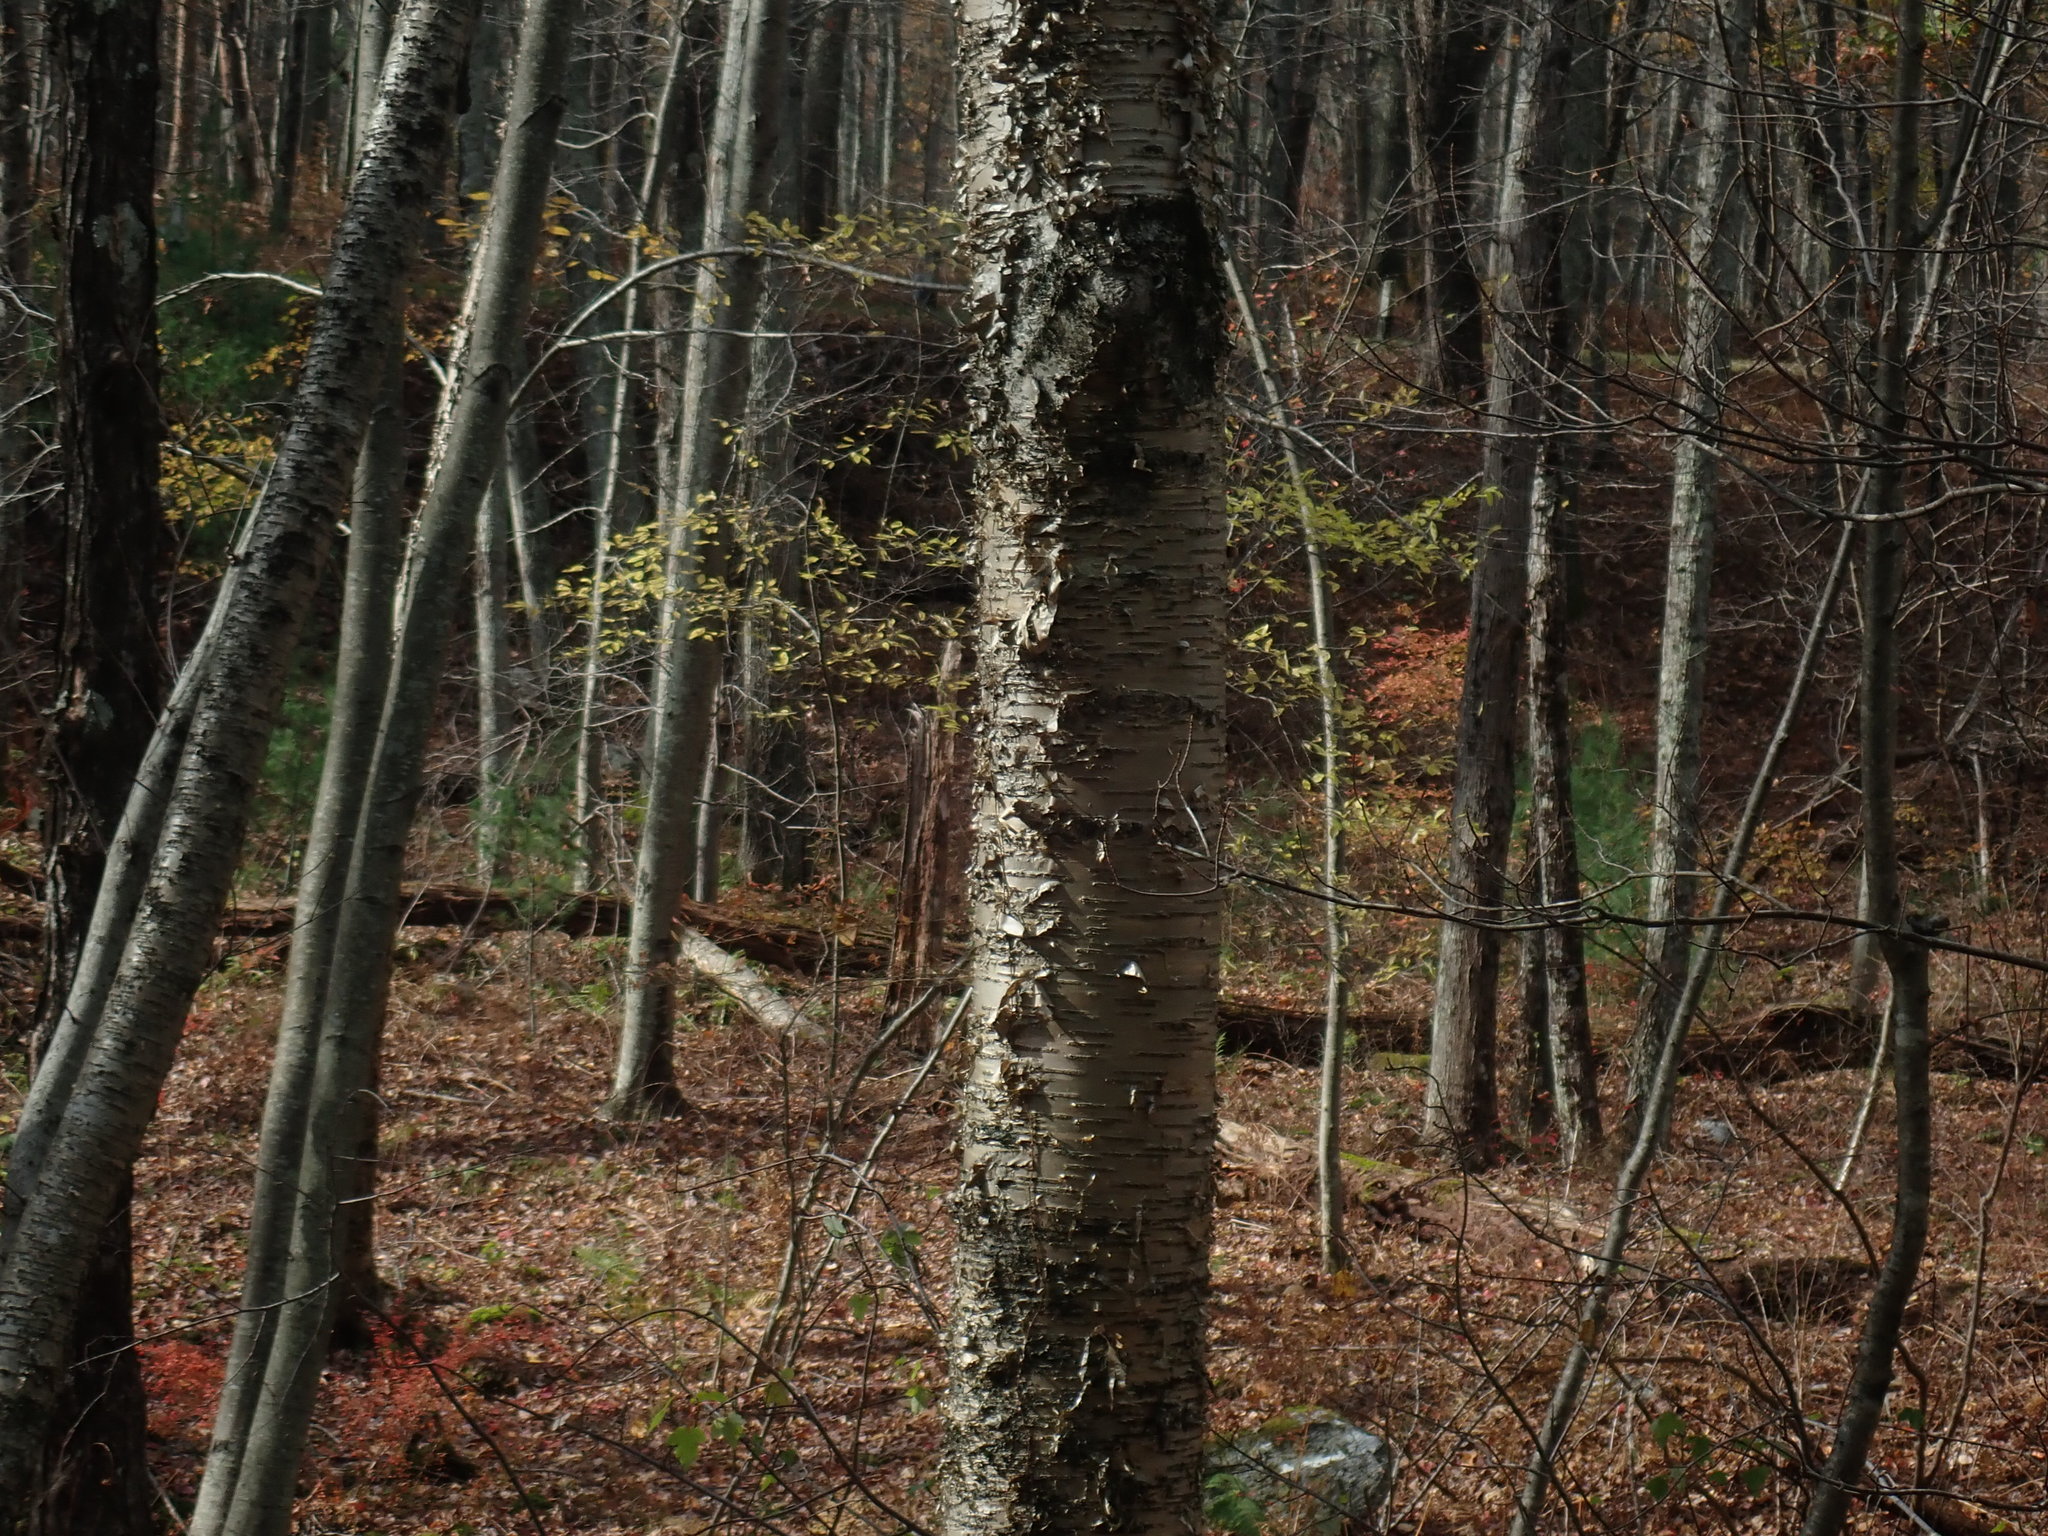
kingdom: Plantae
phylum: Tracheophyta
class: Magnoliopsida
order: Fagales
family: Betulaceae
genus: Betula
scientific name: Betula alleghaniensis
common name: Yellow birch
